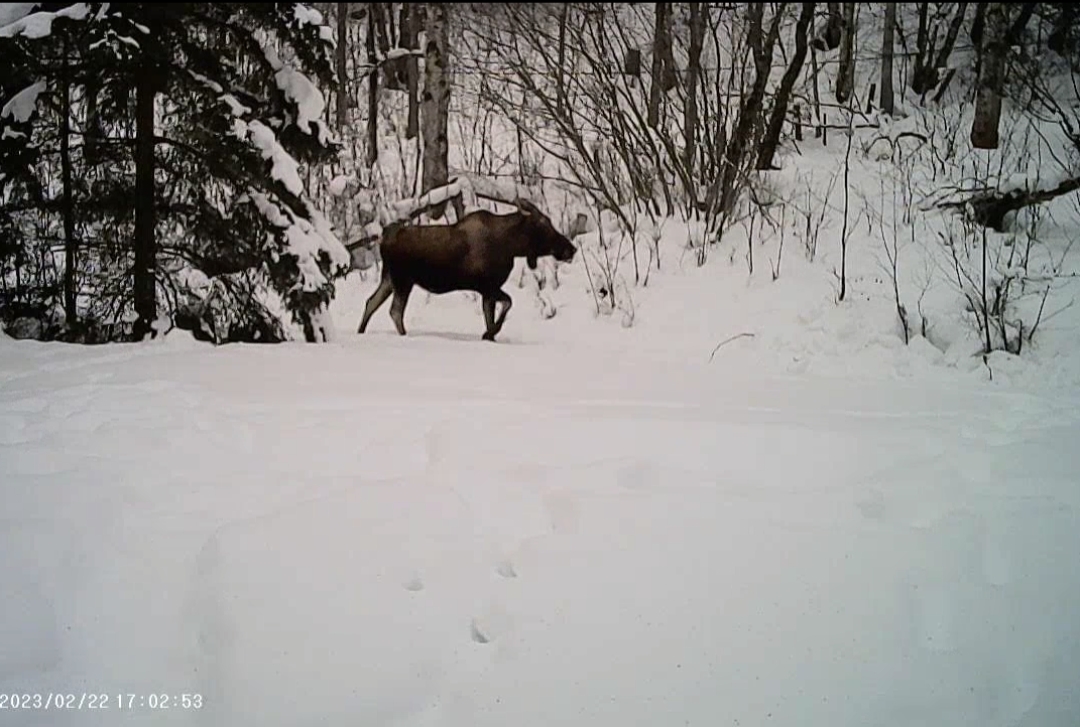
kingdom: Animalia
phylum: Chordata
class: Mammalia
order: Artiodactyla
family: Cervidae
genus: Alces
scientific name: Alces alces
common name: Moose
